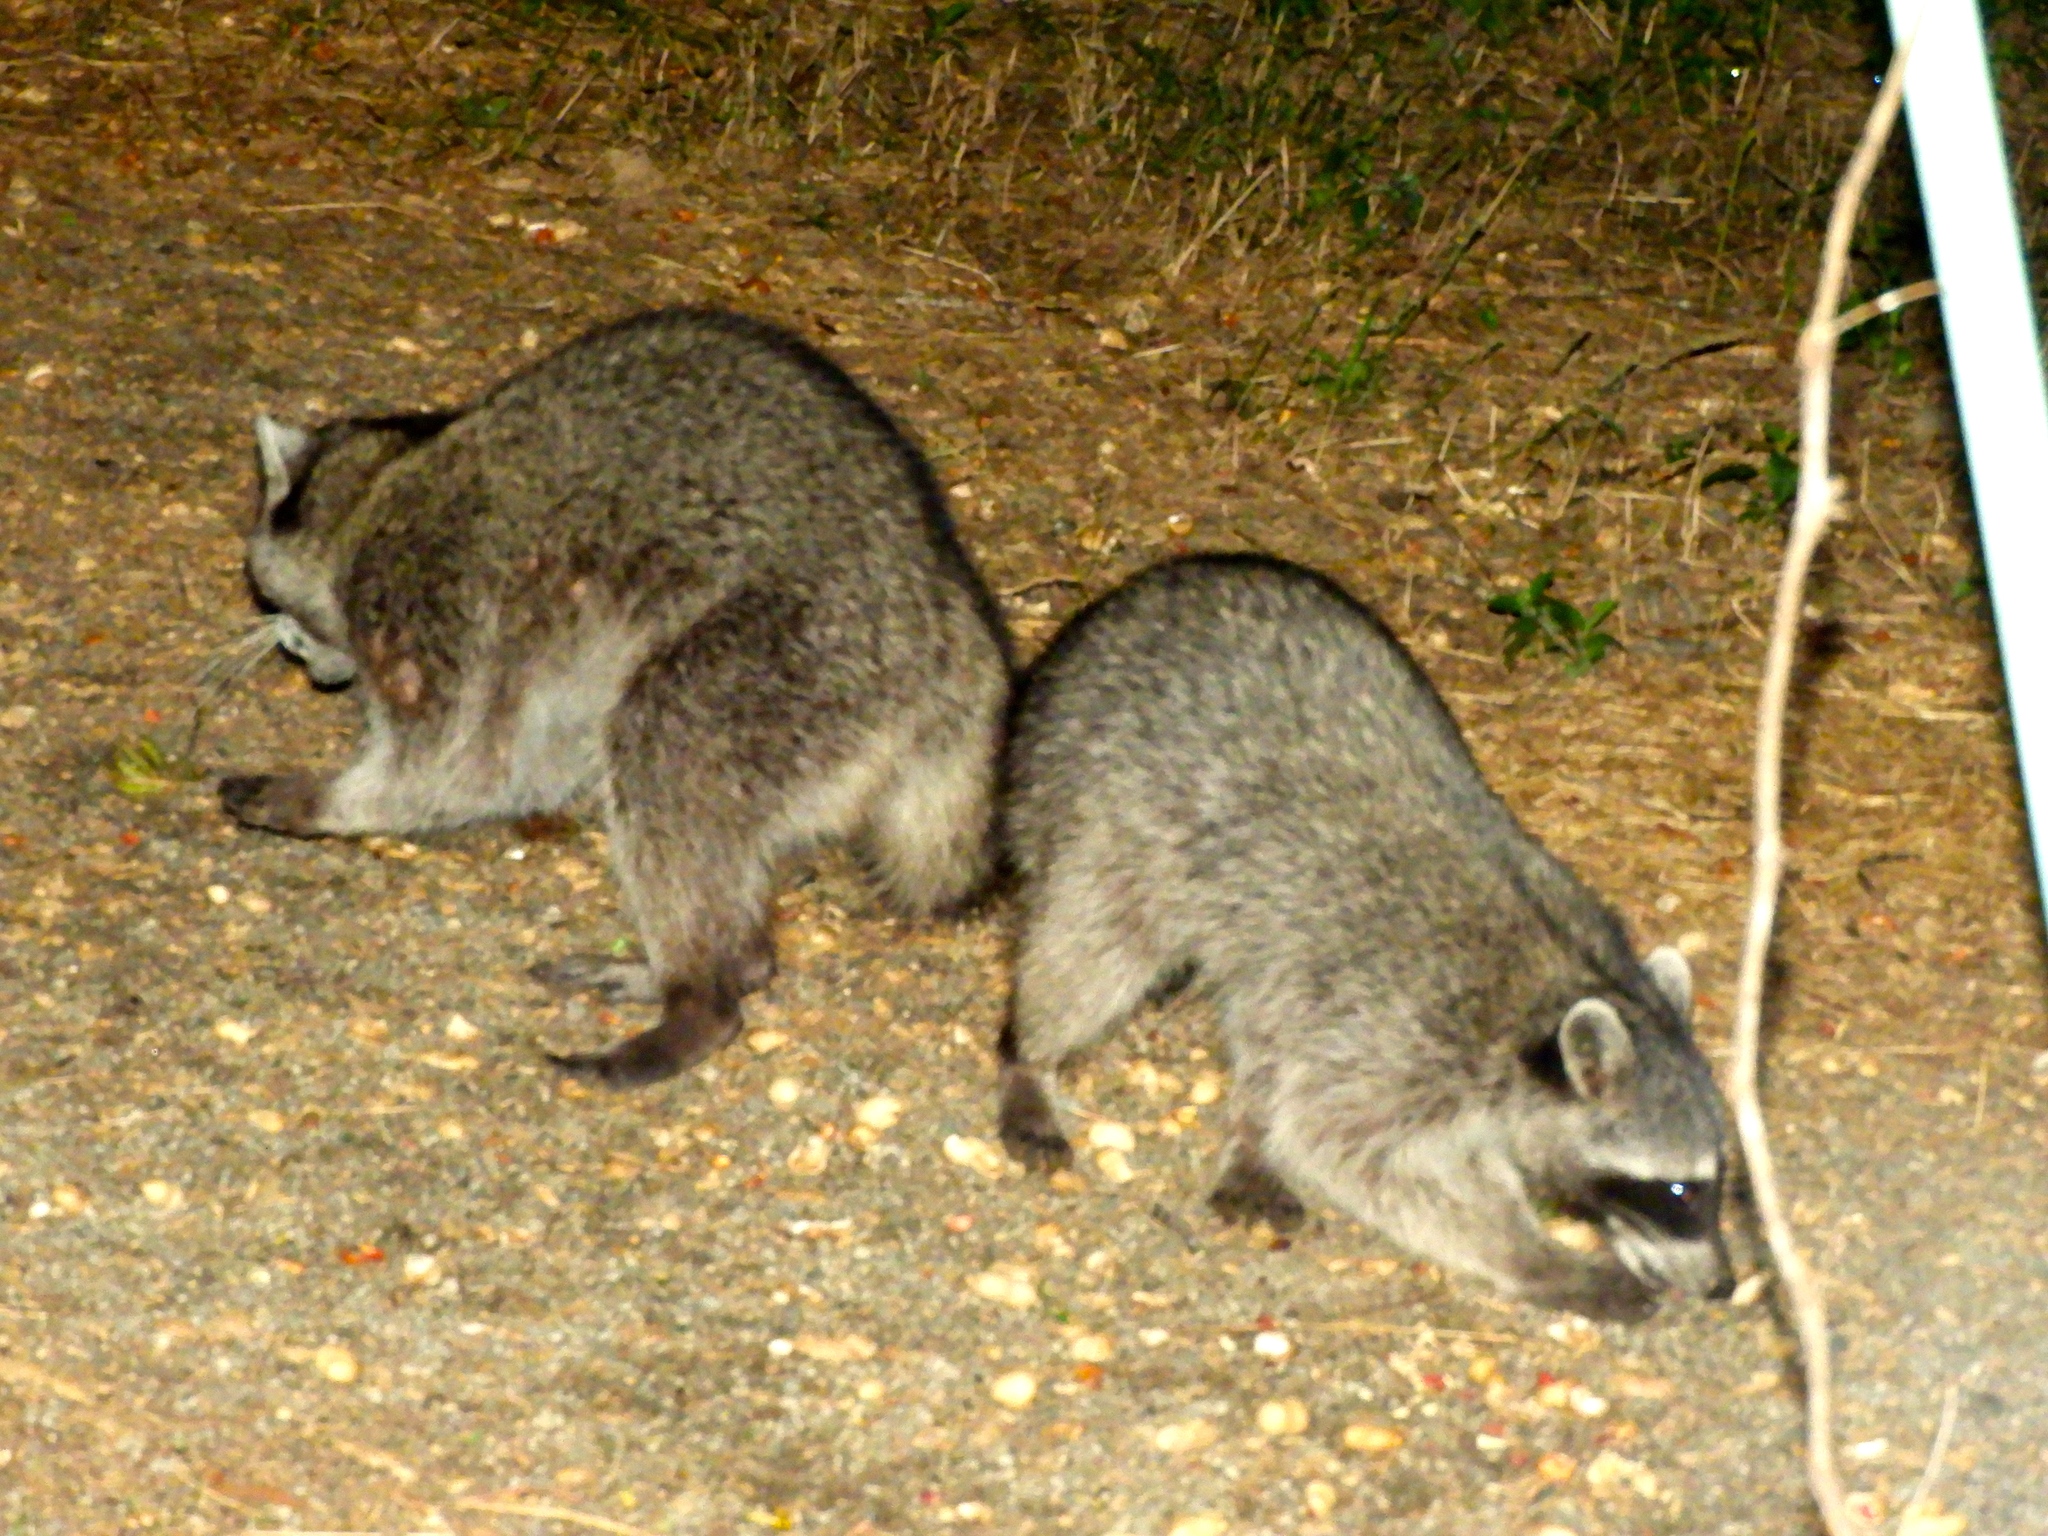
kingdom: Animalia
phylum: Chordata
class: Mammalia
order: Carnivora
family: Procyonidae
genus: Procyon
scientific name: Procyon lotor
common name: Raccoon
